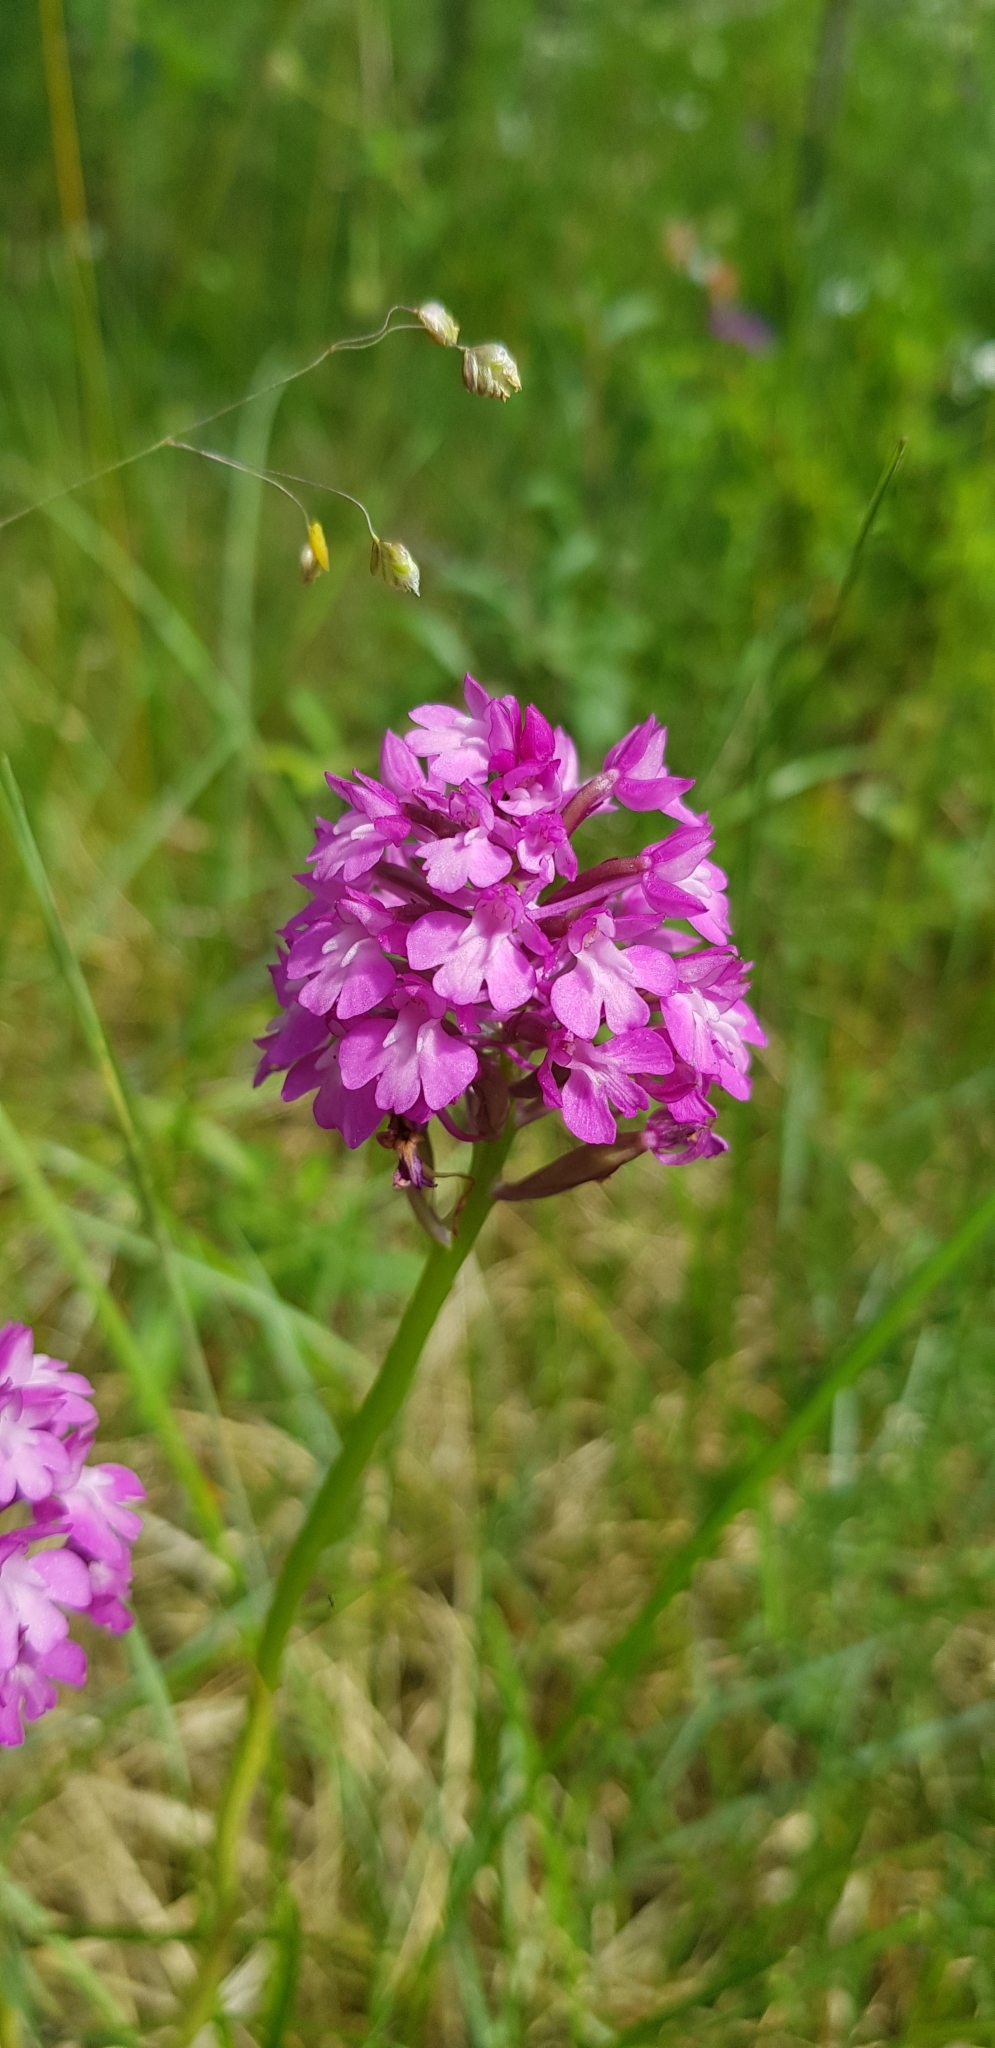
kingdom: Plantae
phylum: Tracheophyta
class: Liliopsida
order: Asparagales
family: Orchidaceae
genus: Anacamptis
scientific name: Anacamptis pyramidalis
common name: Pyramidal orchid
